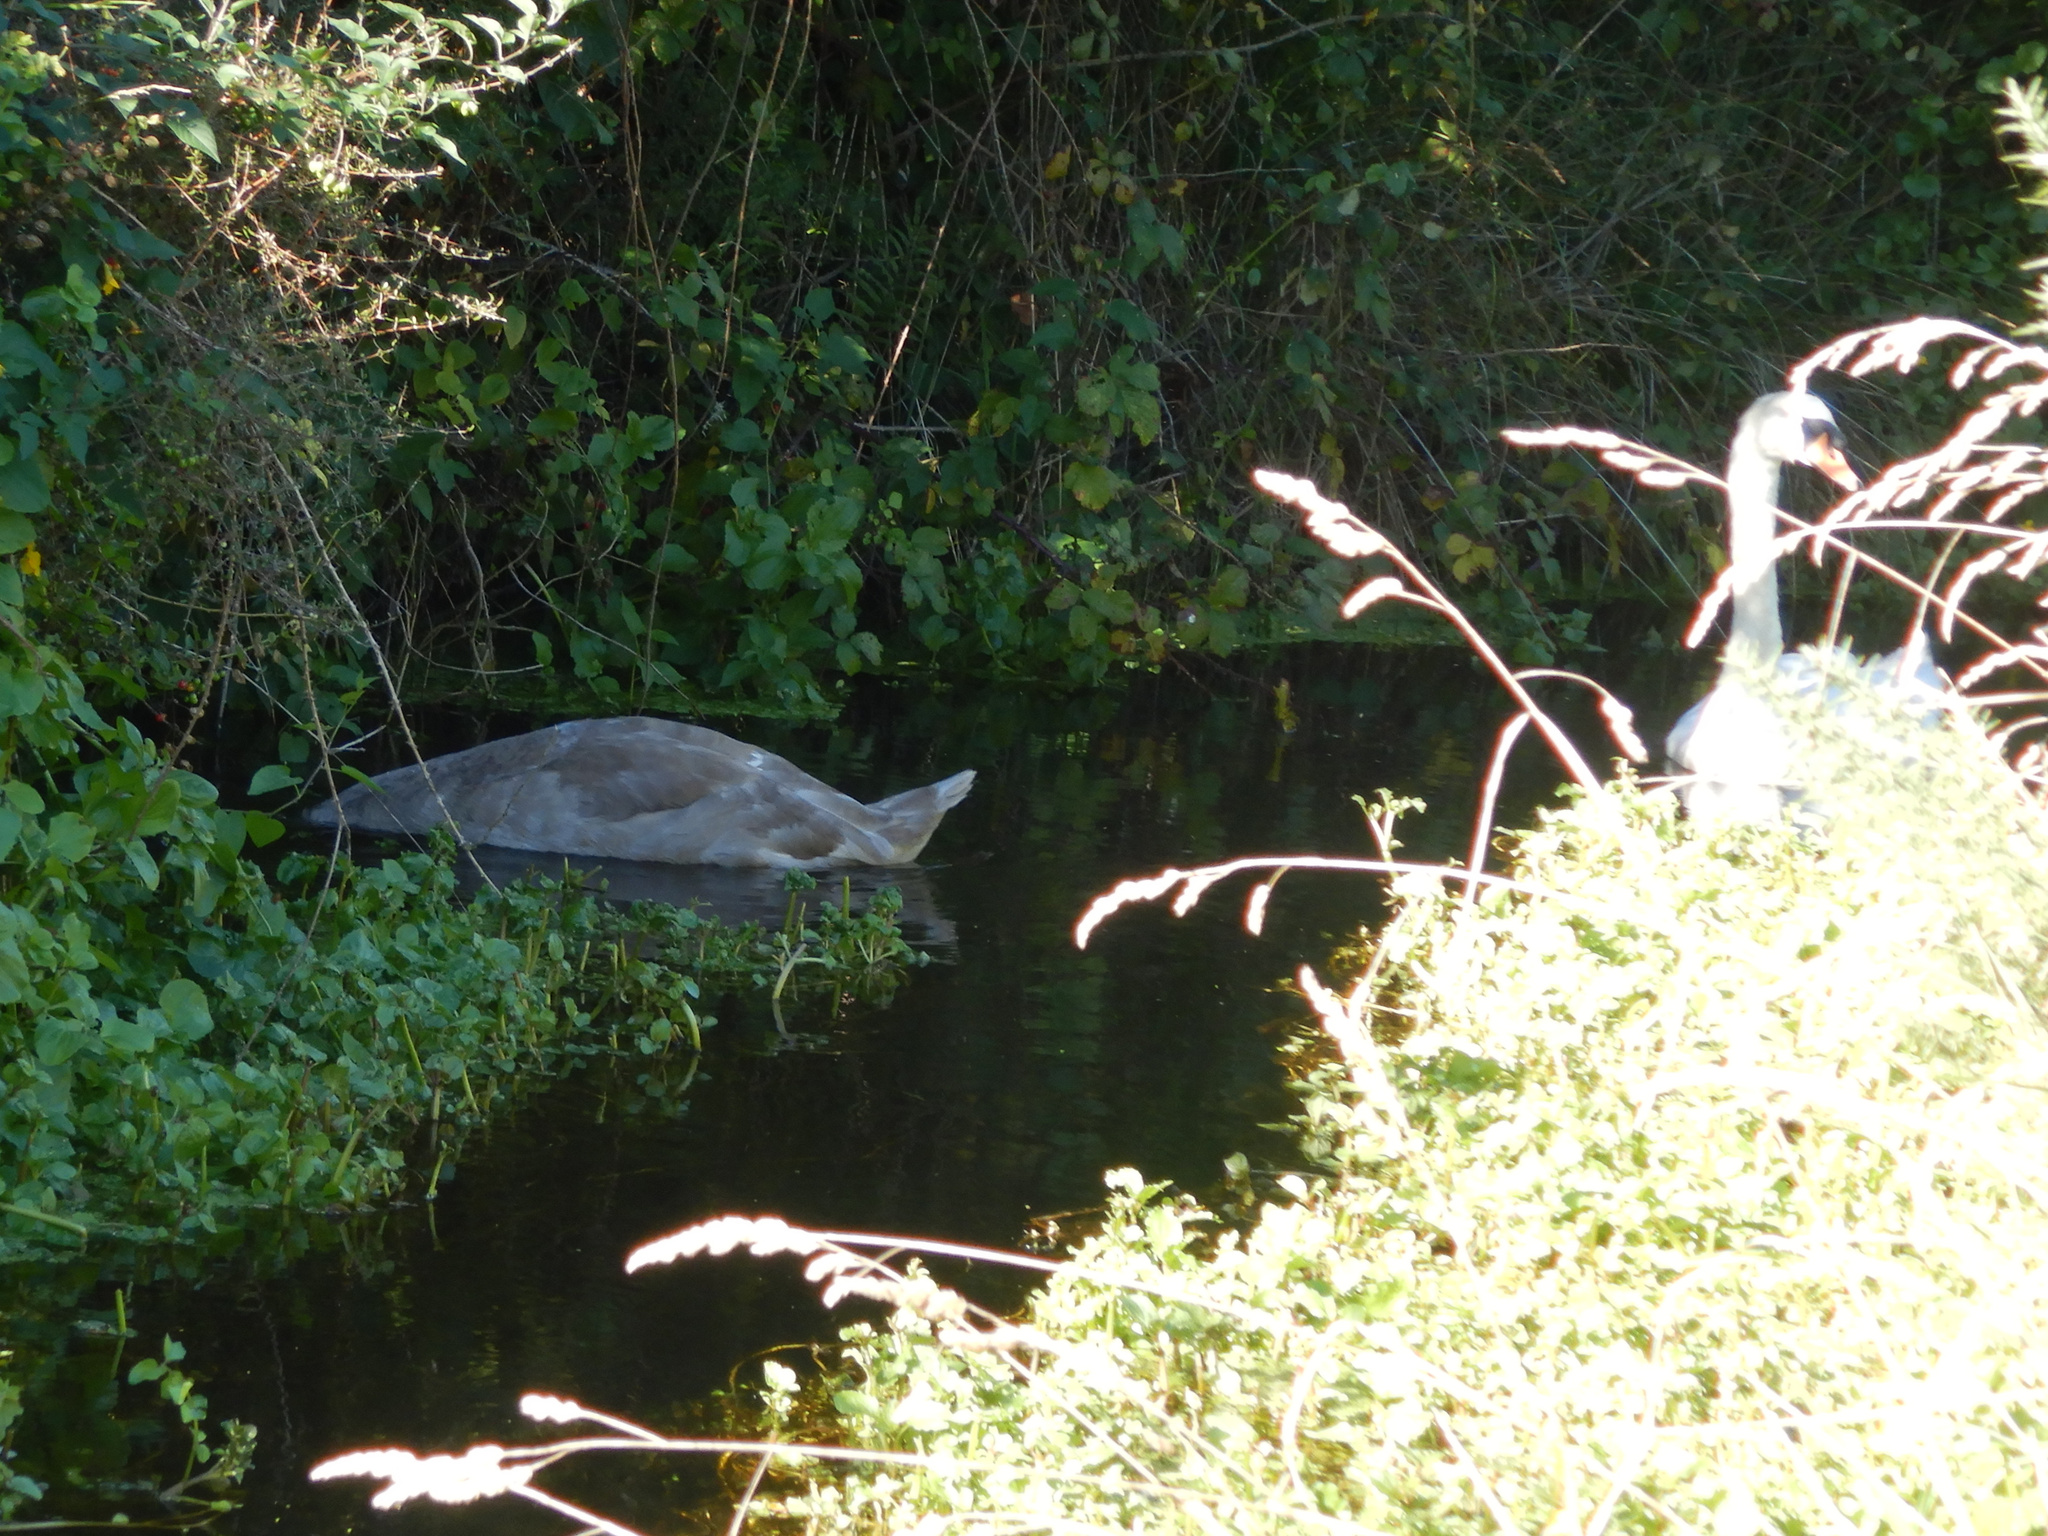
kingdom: Animalia
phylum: Chordata
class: Aves
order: Anseriformes
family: Anatidae
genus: Cygnus
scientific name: Cygnus olor
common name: Mute swan
